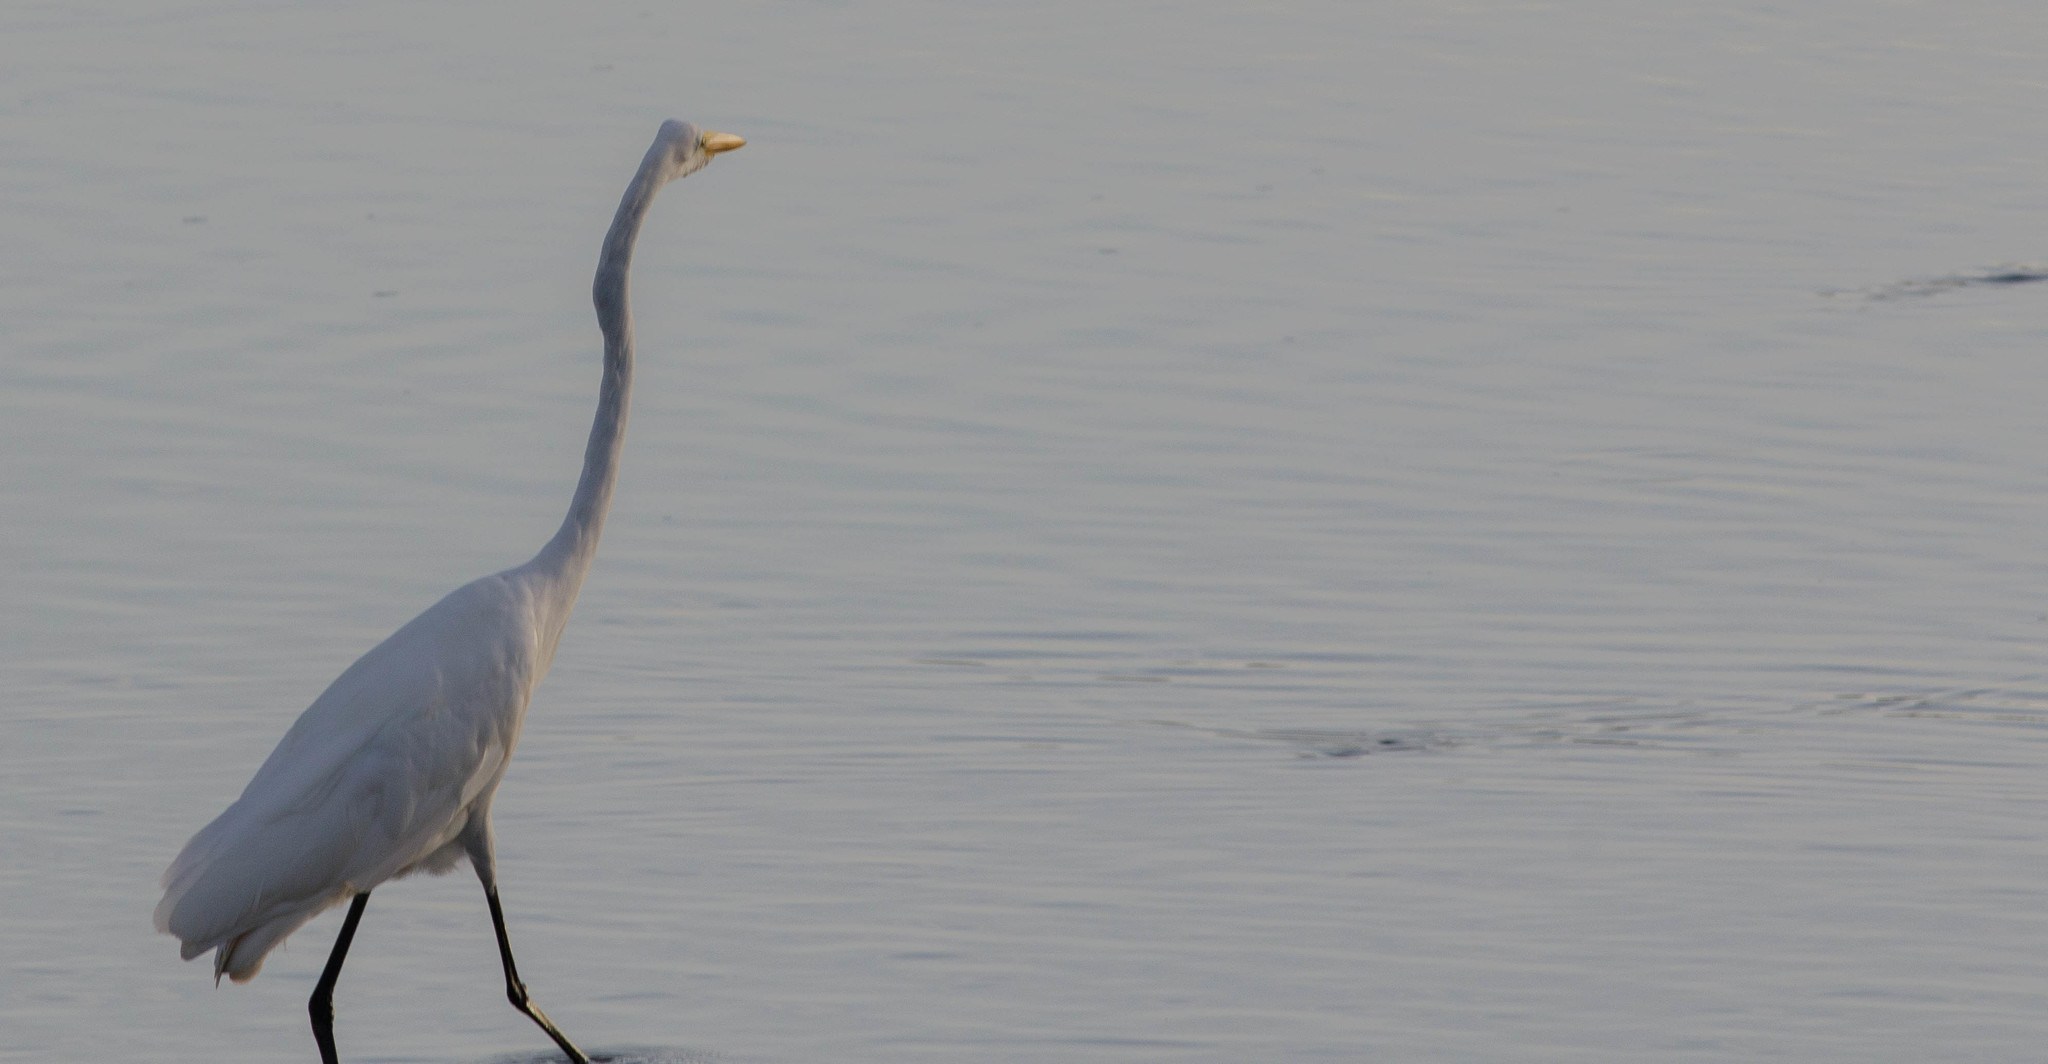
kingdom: Animalia
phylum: Chordata
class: Aves
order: Pelecaniformes
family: Ardeidae
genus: Ardea
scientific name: Ardea alba
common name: Great egret
